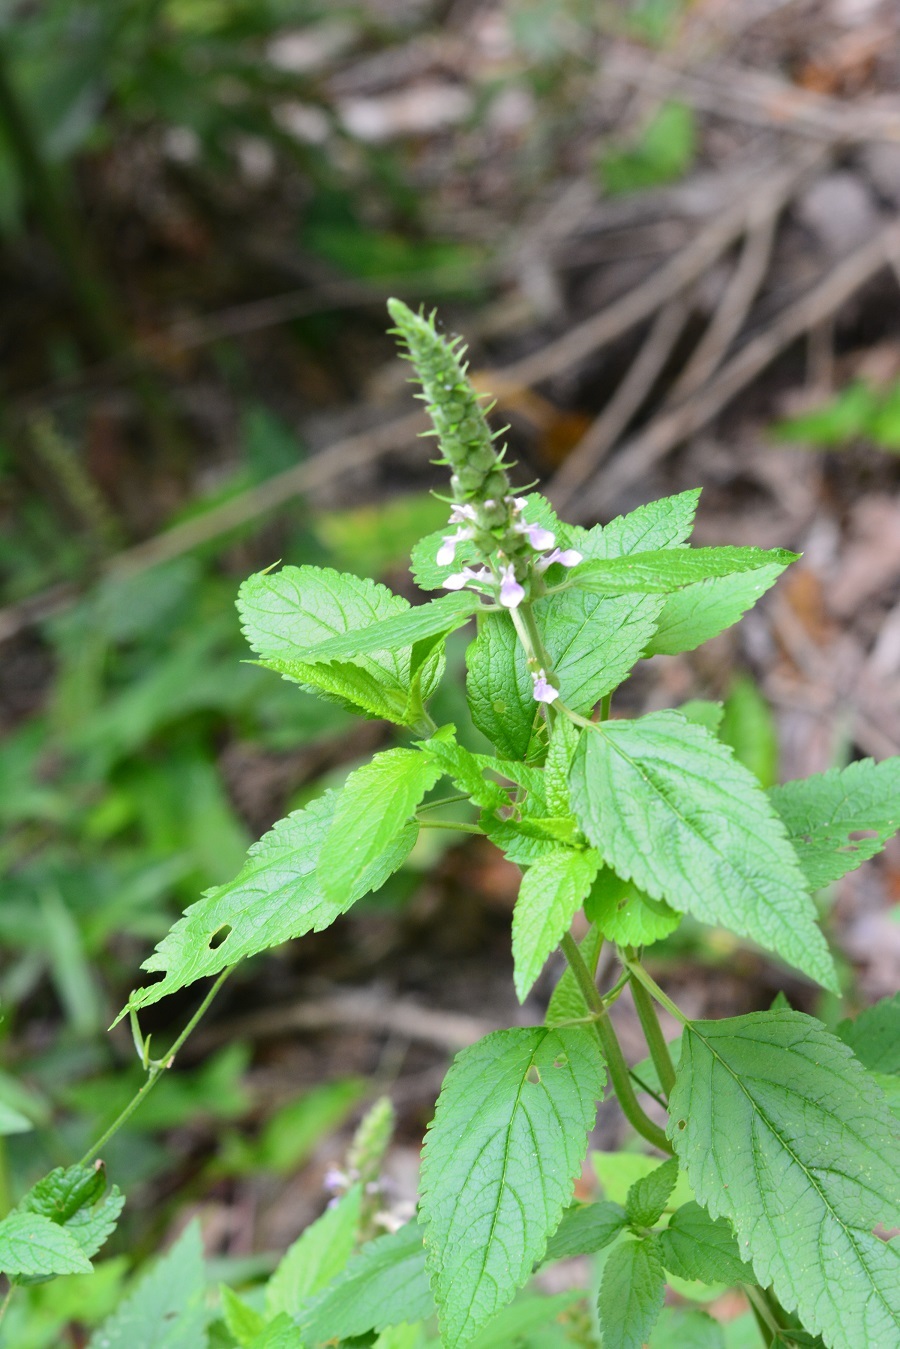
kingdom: Plantae
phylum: Tracheophyta
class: Magnoliopsida
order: Lamiales
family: Lamiaceae
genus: Teucrium
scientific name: Teucrium vesicarium
